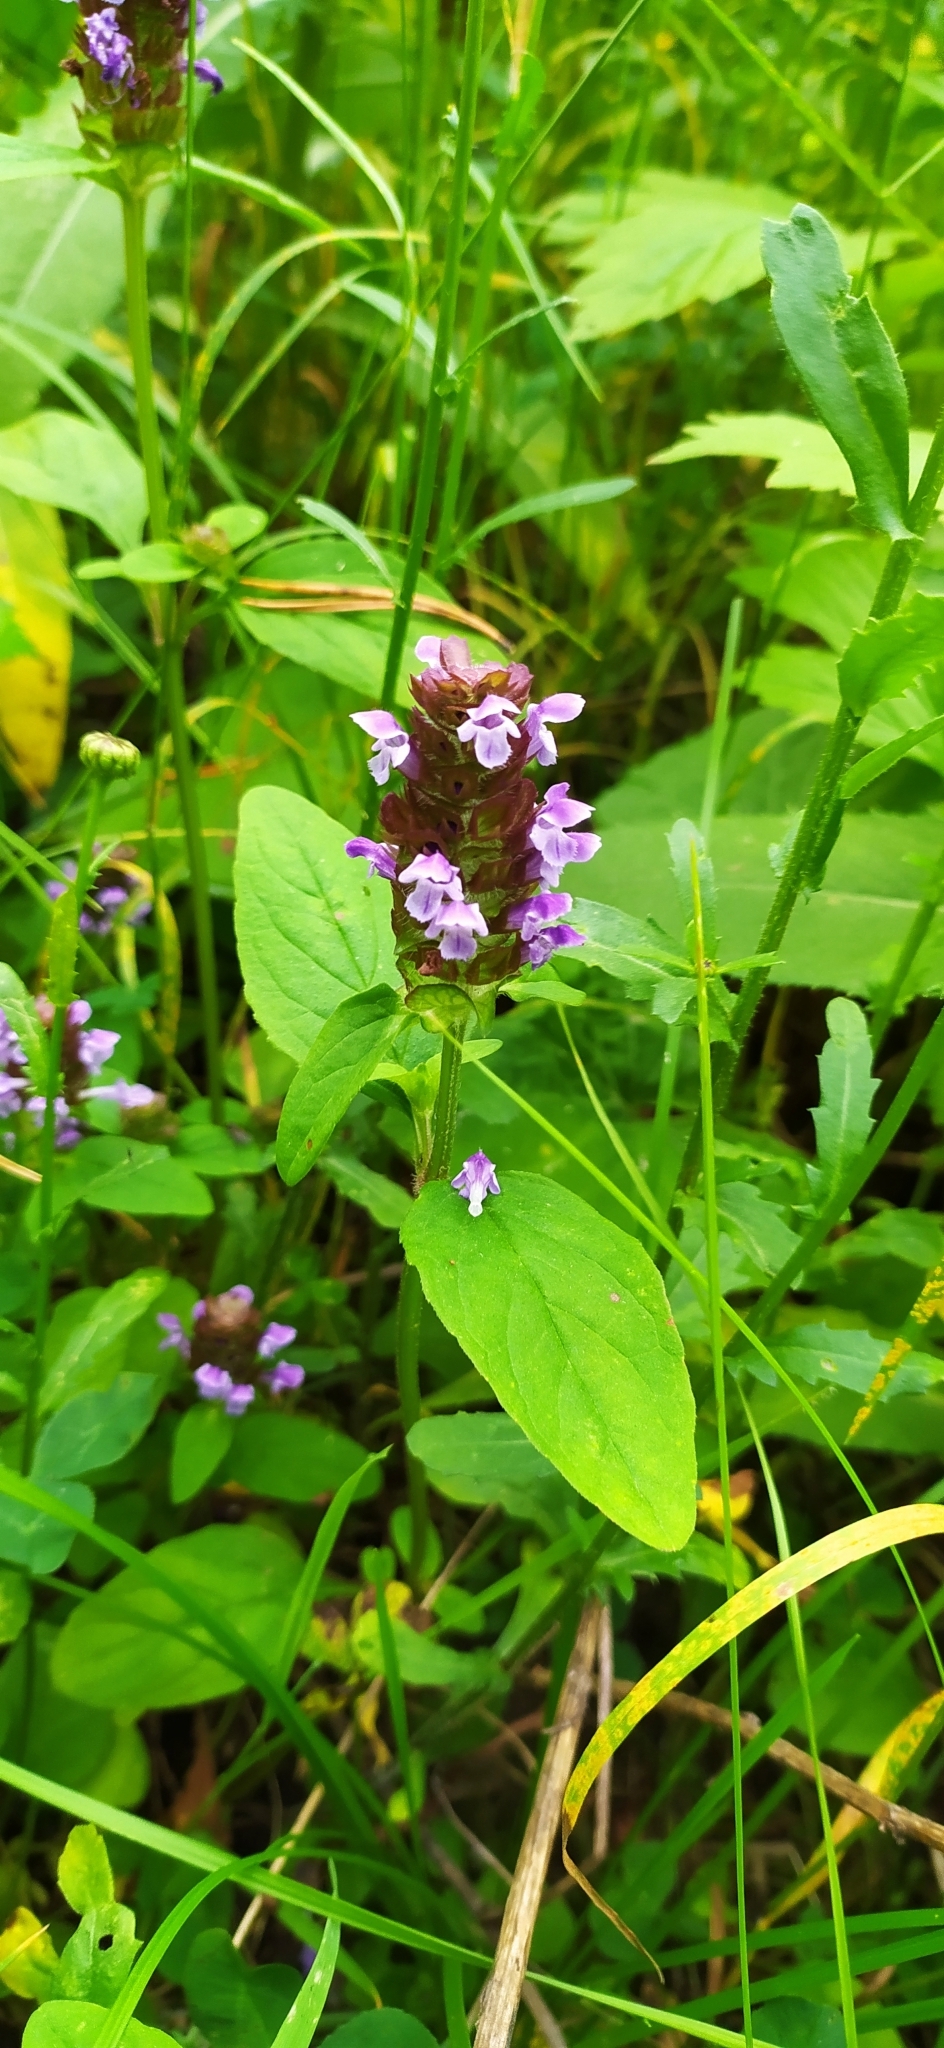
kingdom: Plantae
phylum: Tracheophyta
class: Magnoliopsida
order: Lamiales
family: Lamiaceae
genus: Prunella
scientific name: Prunella vulgaris
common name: Heal-all
